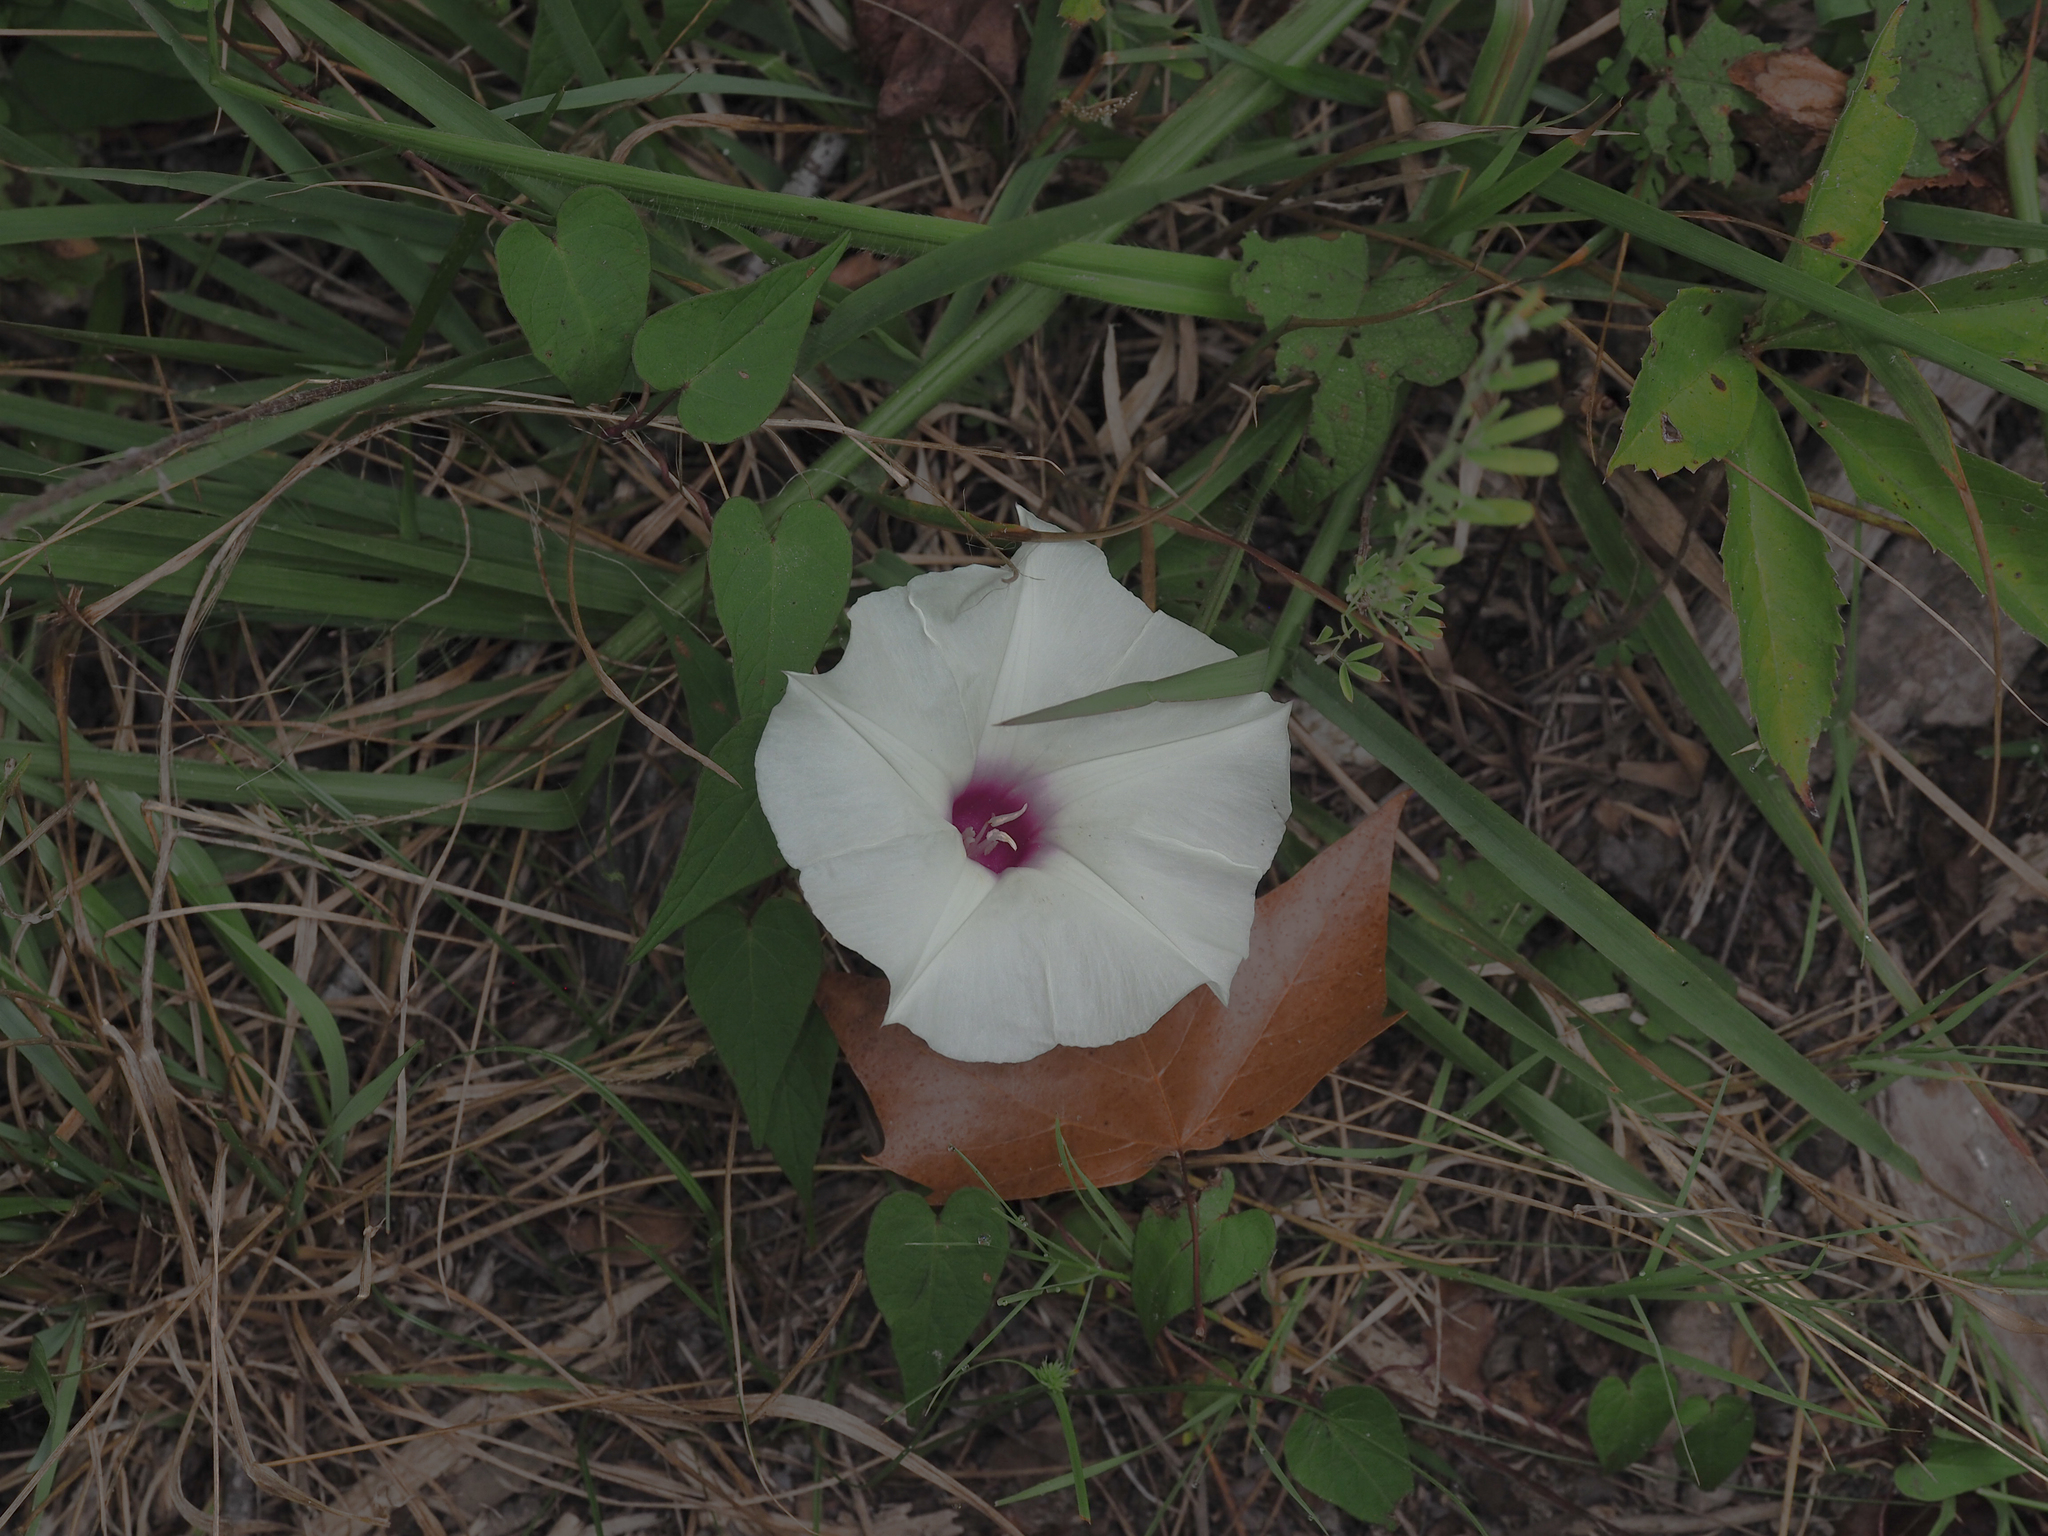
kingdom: Plantae
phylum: Tracheophyta
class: Magnoliopsida
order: Solanales
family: Convolvulaceae
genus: Ipomoea
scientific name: Ipomoea pandurata
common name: Man-of-the-earth
